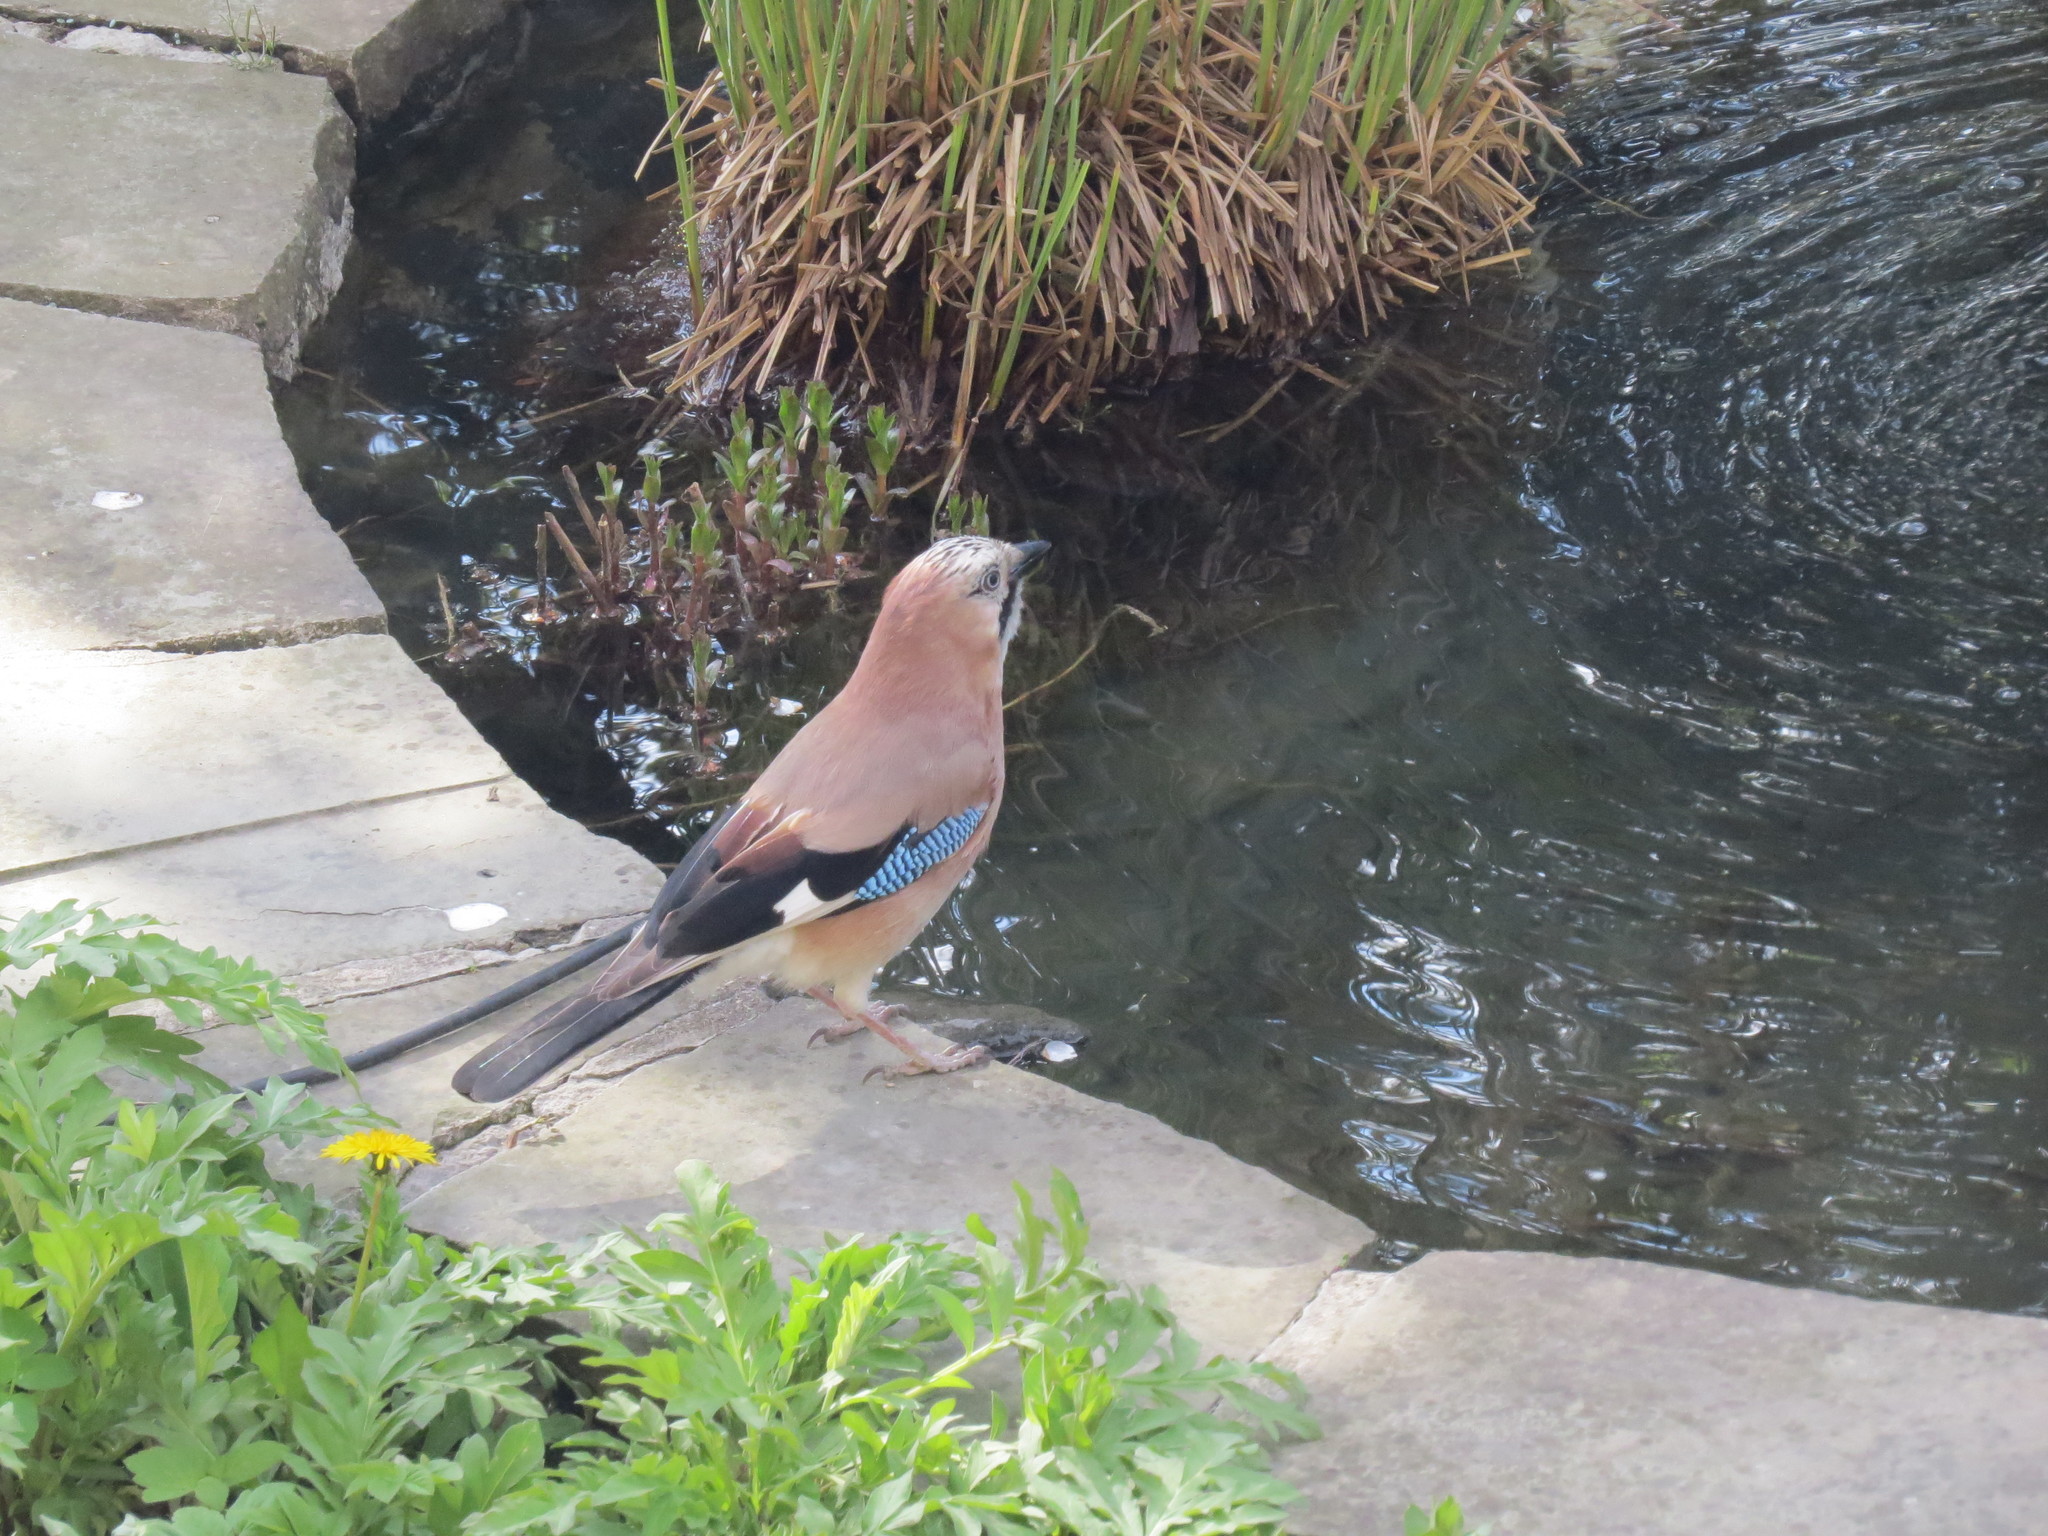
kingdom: Animalia
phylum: Chordata
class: Aves
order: Passeriformes
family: Corvidae
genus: Garrulus
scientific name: Garrulus glandarius
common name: Eurasian jay
